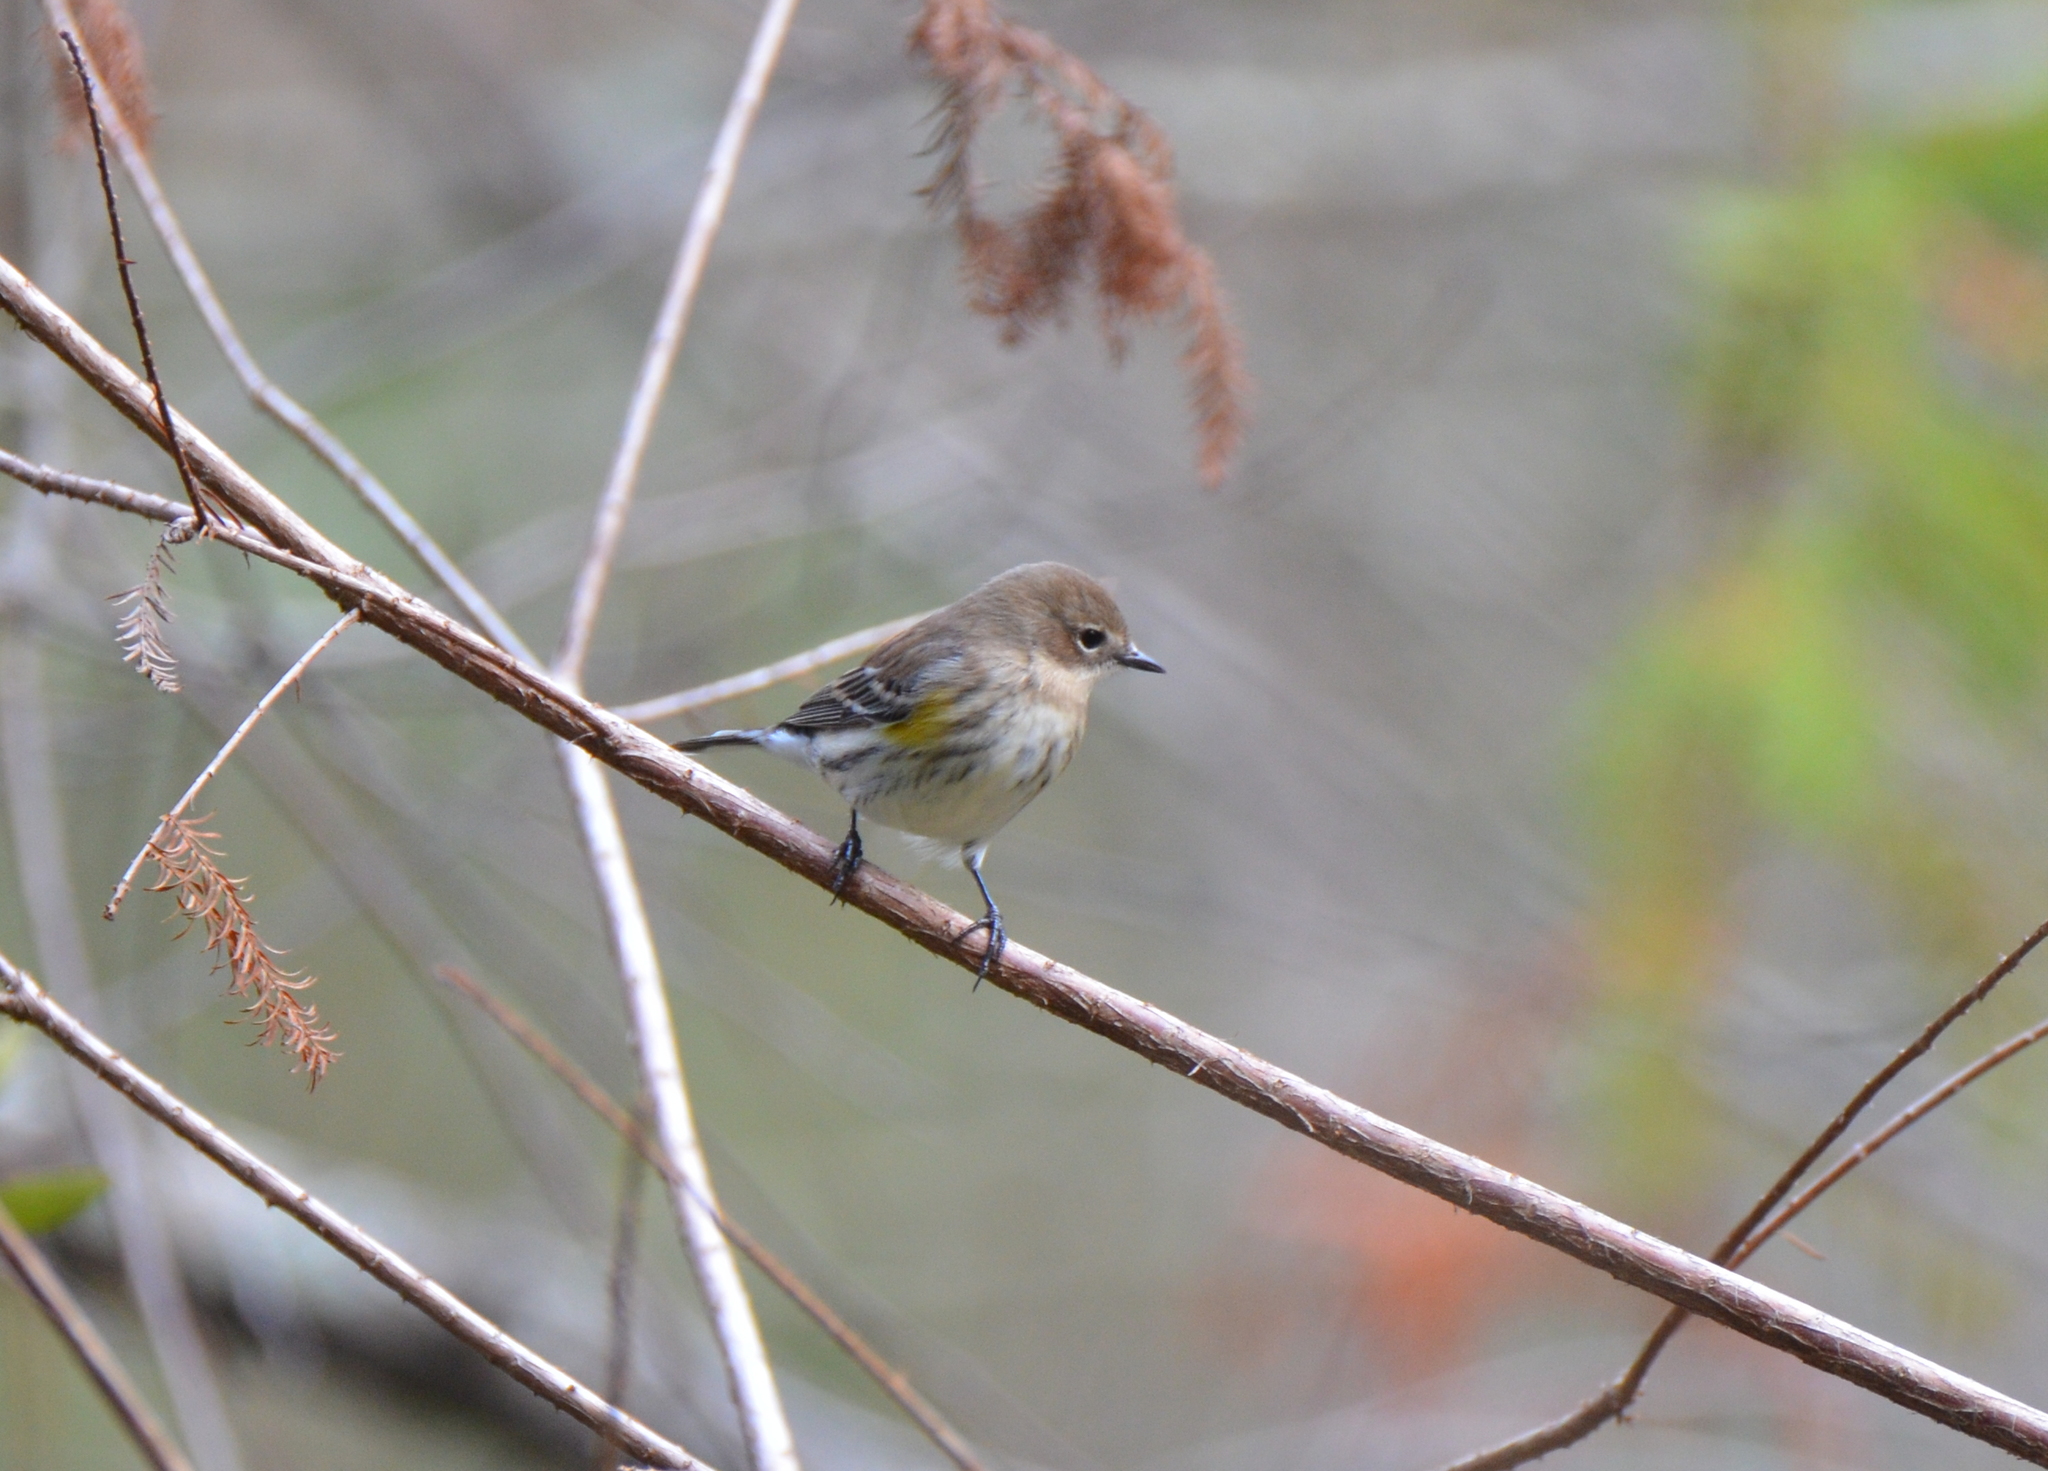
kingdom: Animalia
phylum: Chordata
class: Aves
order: Passeriformes
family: Parulidae
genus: Setophaga
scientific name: Setophaga coronata
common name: Myrtle warbler
